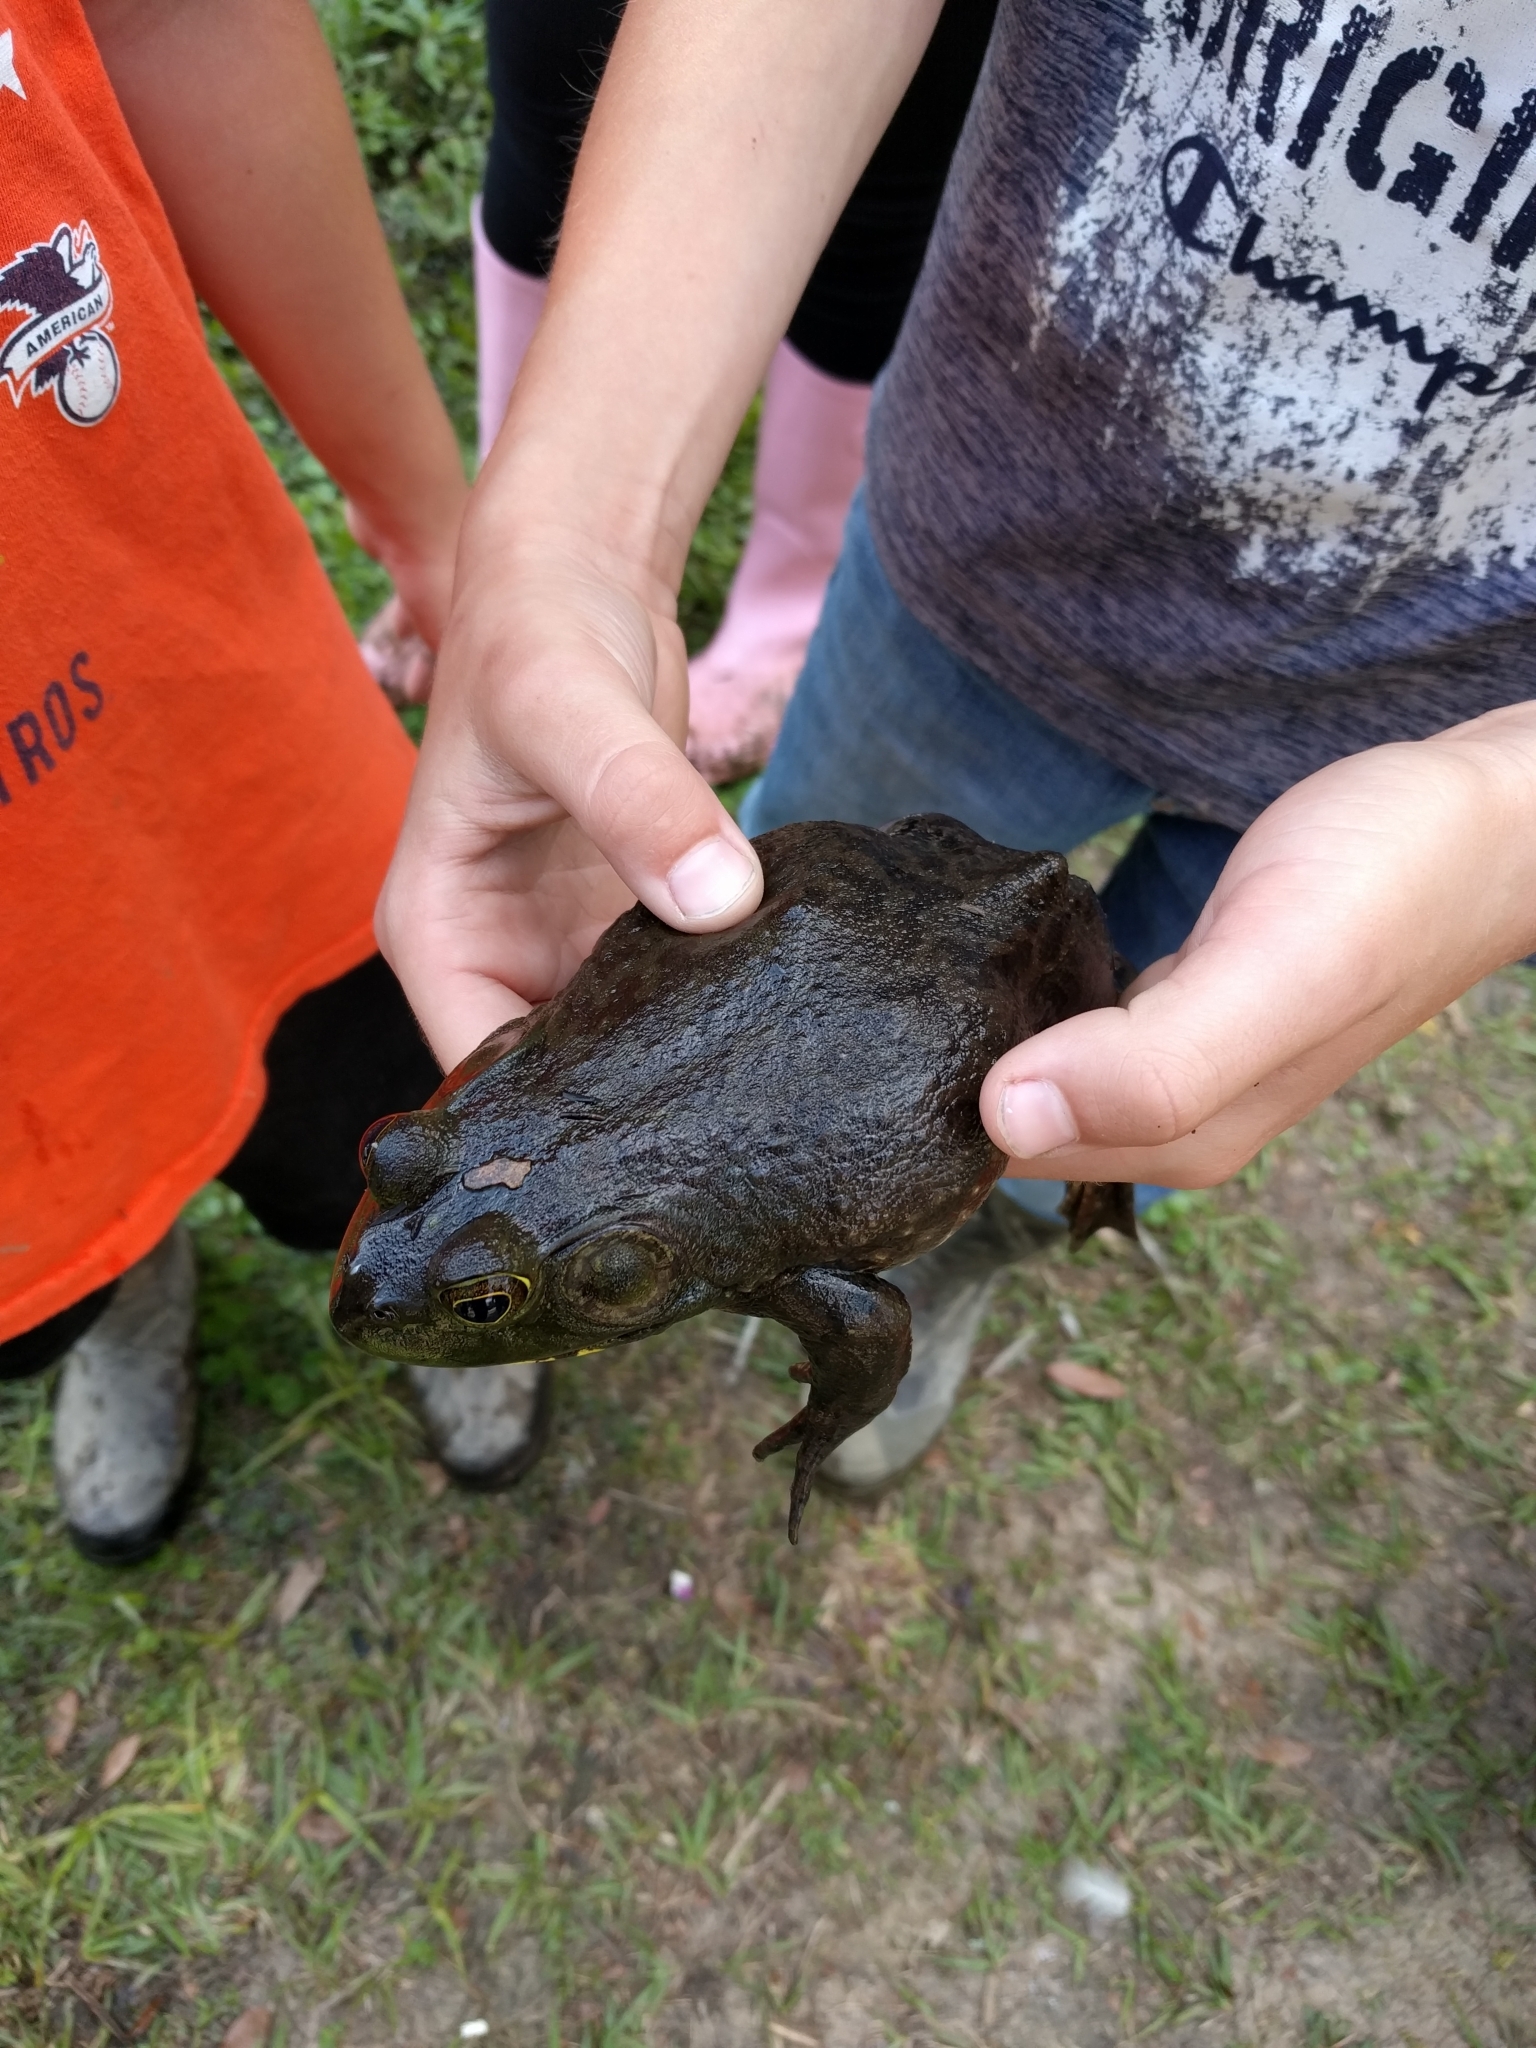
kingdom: Animalia
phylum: Chordata
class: Amphibia
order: Anura
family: Ranidae
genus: Lithobates
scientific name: Lithobates catesbeianus
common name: American bullfrog
